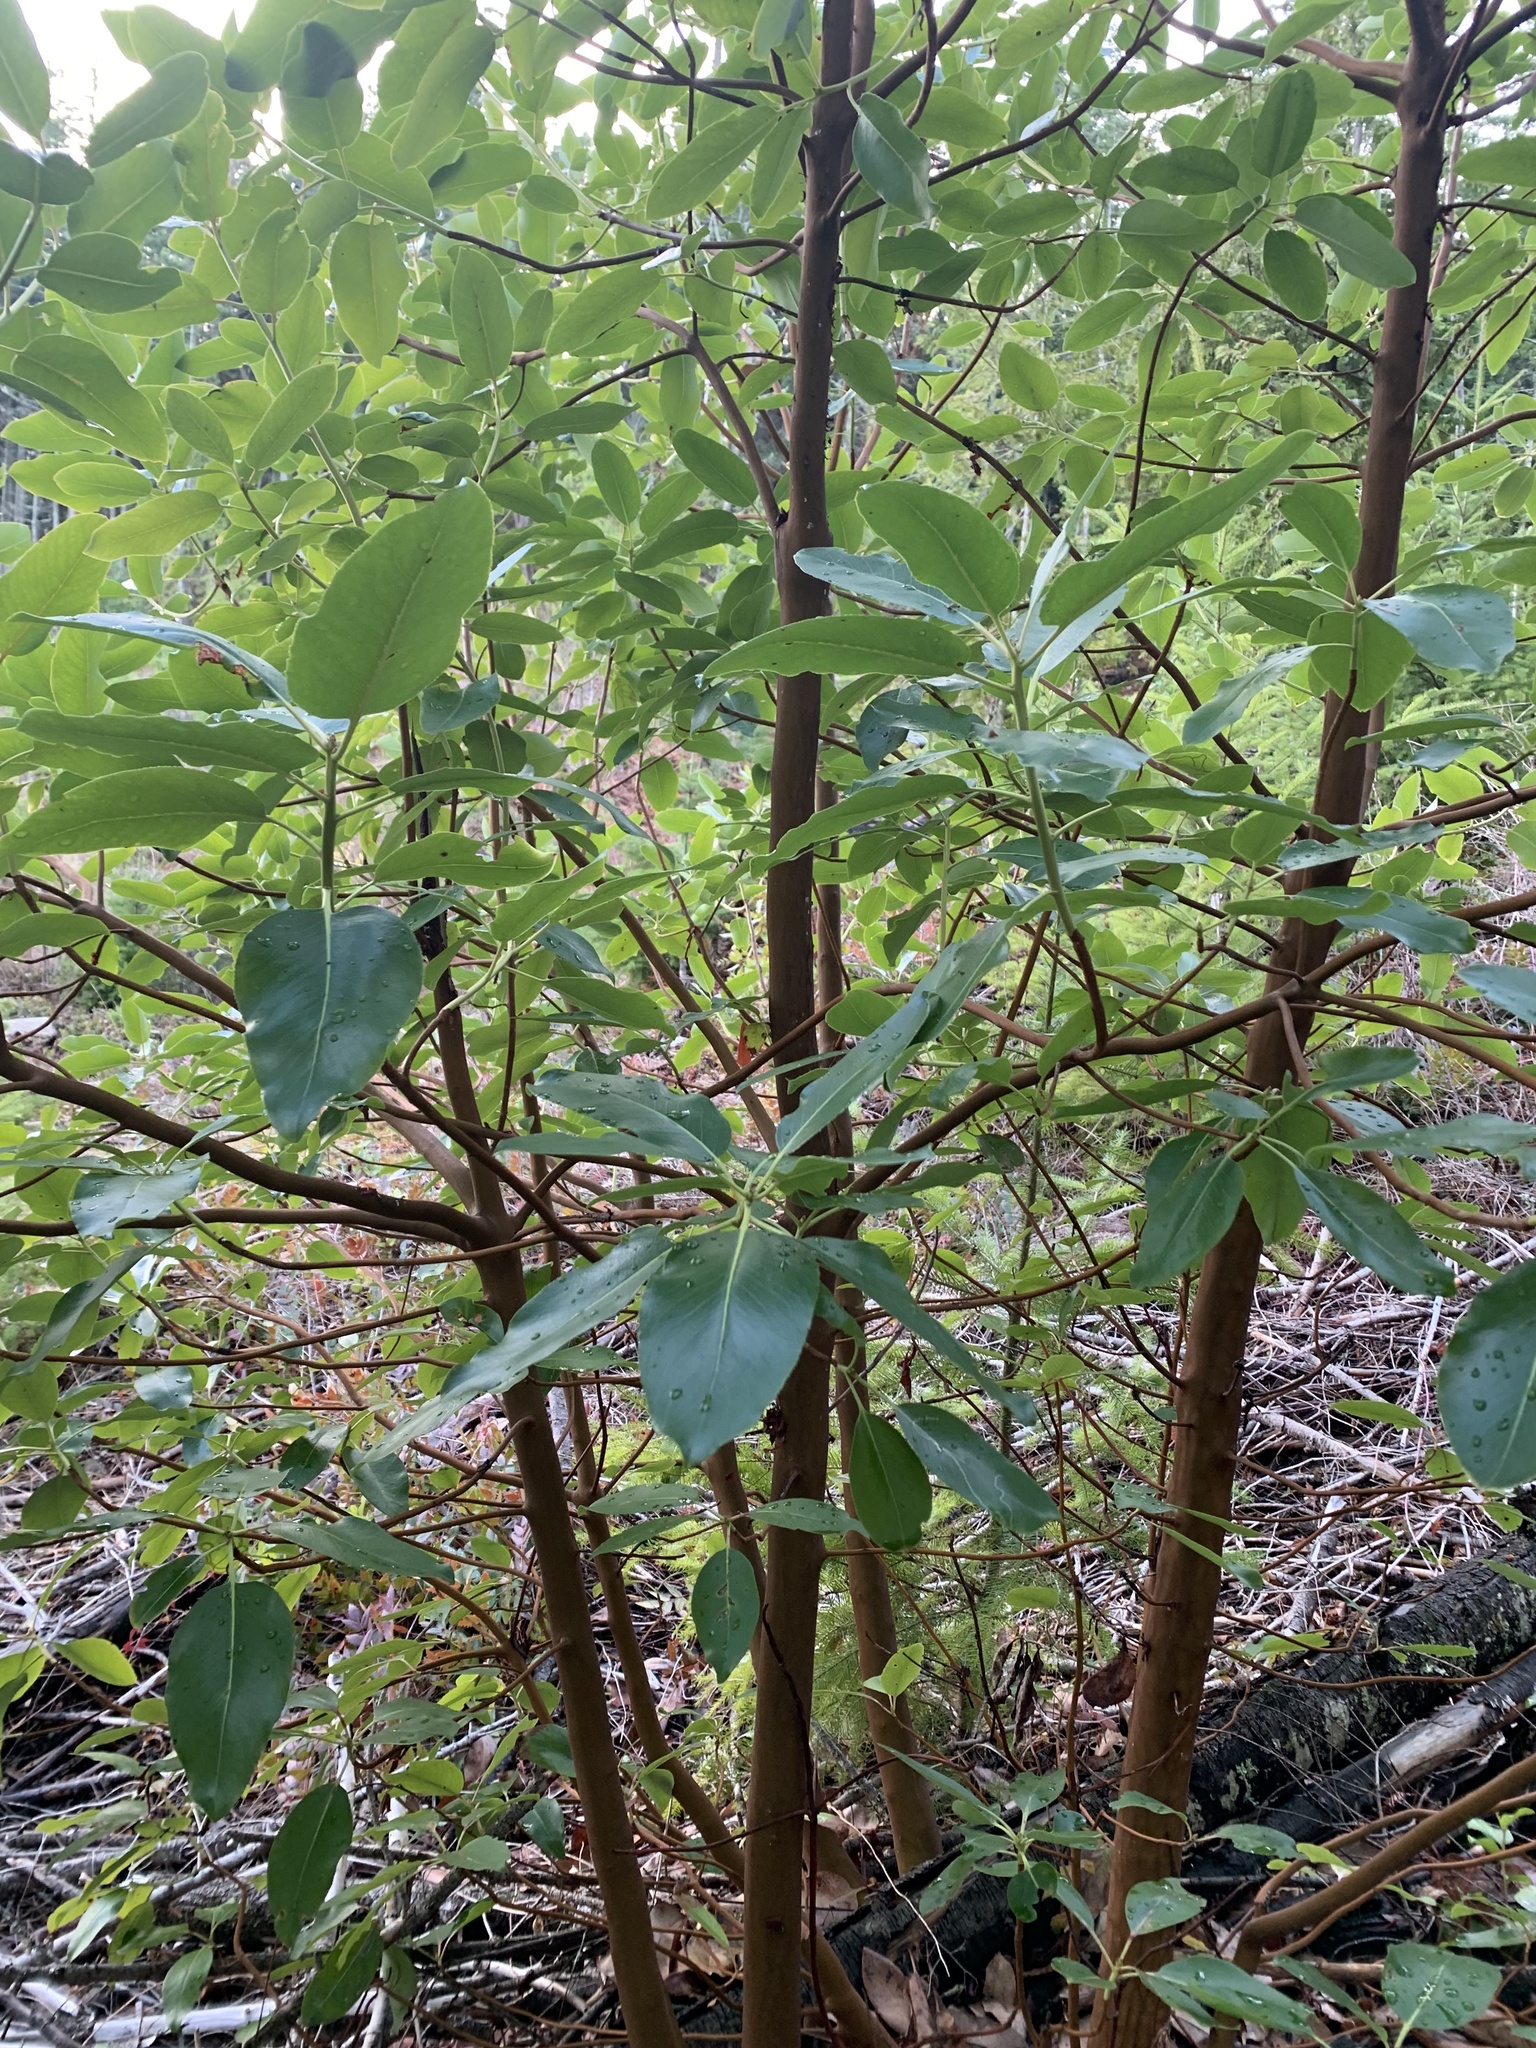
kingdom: Plantae
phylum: Tracheophyta
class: Magnoliopsida
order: Ericales
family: Ericaceae
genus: Arbutus
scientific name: Arbutus menziesii
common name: Pacific madrone
